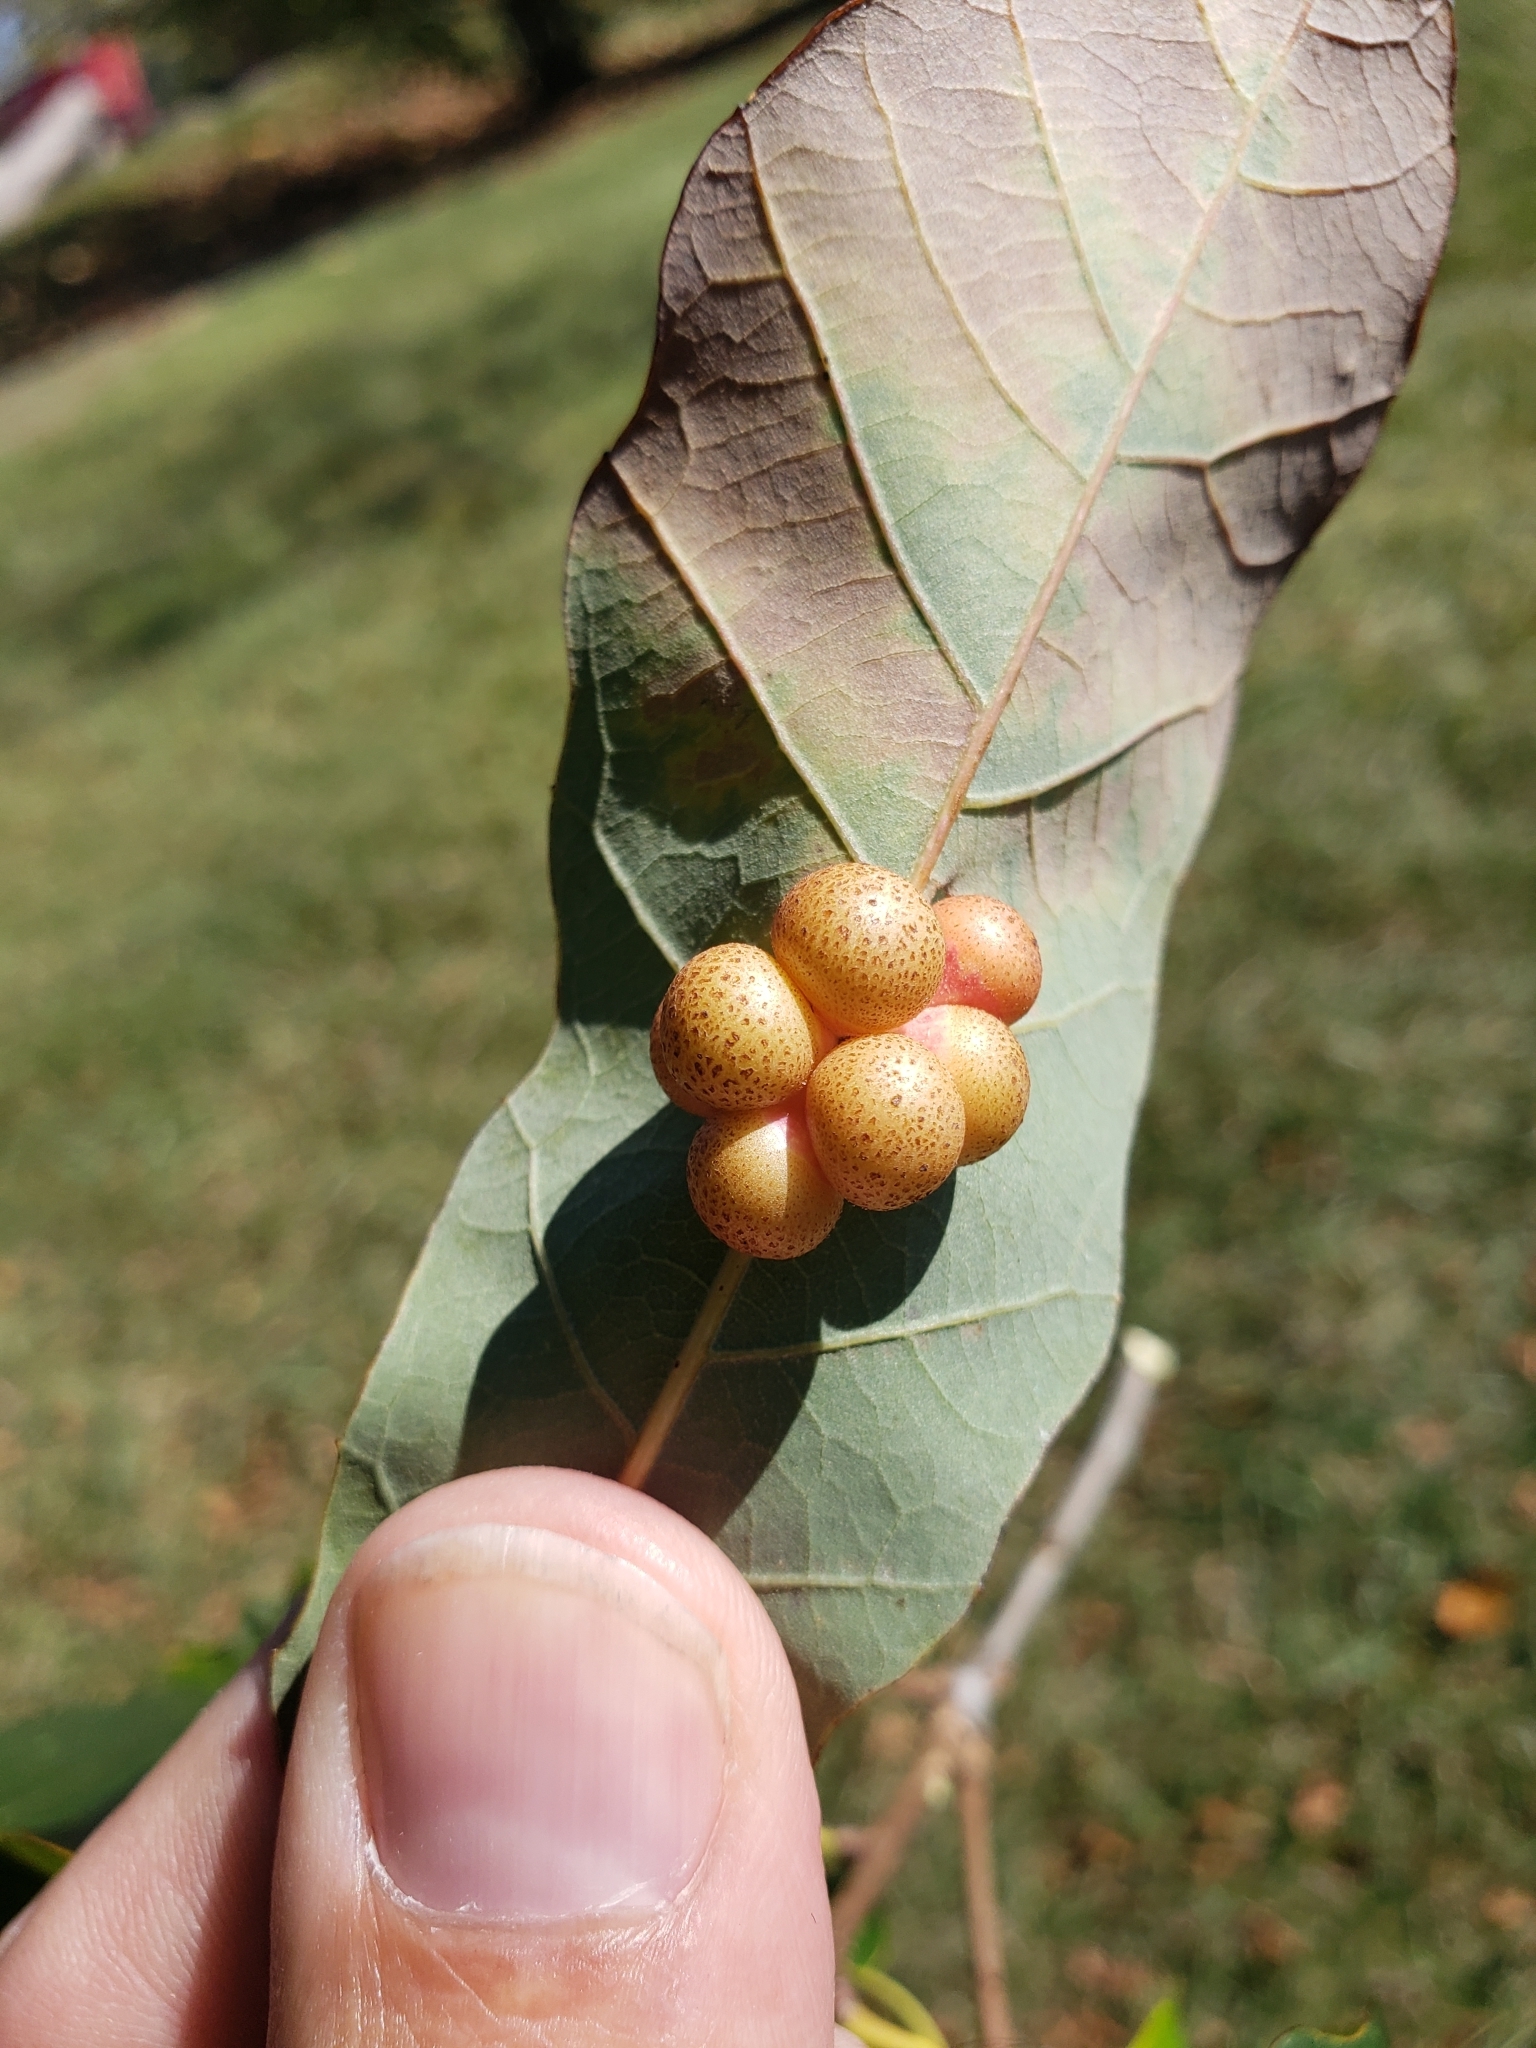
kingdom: Animalia
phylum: Arthropoda
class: Insecta
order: Hymenoptera
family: Cynipidae
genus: Andricus
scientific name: Andricus
